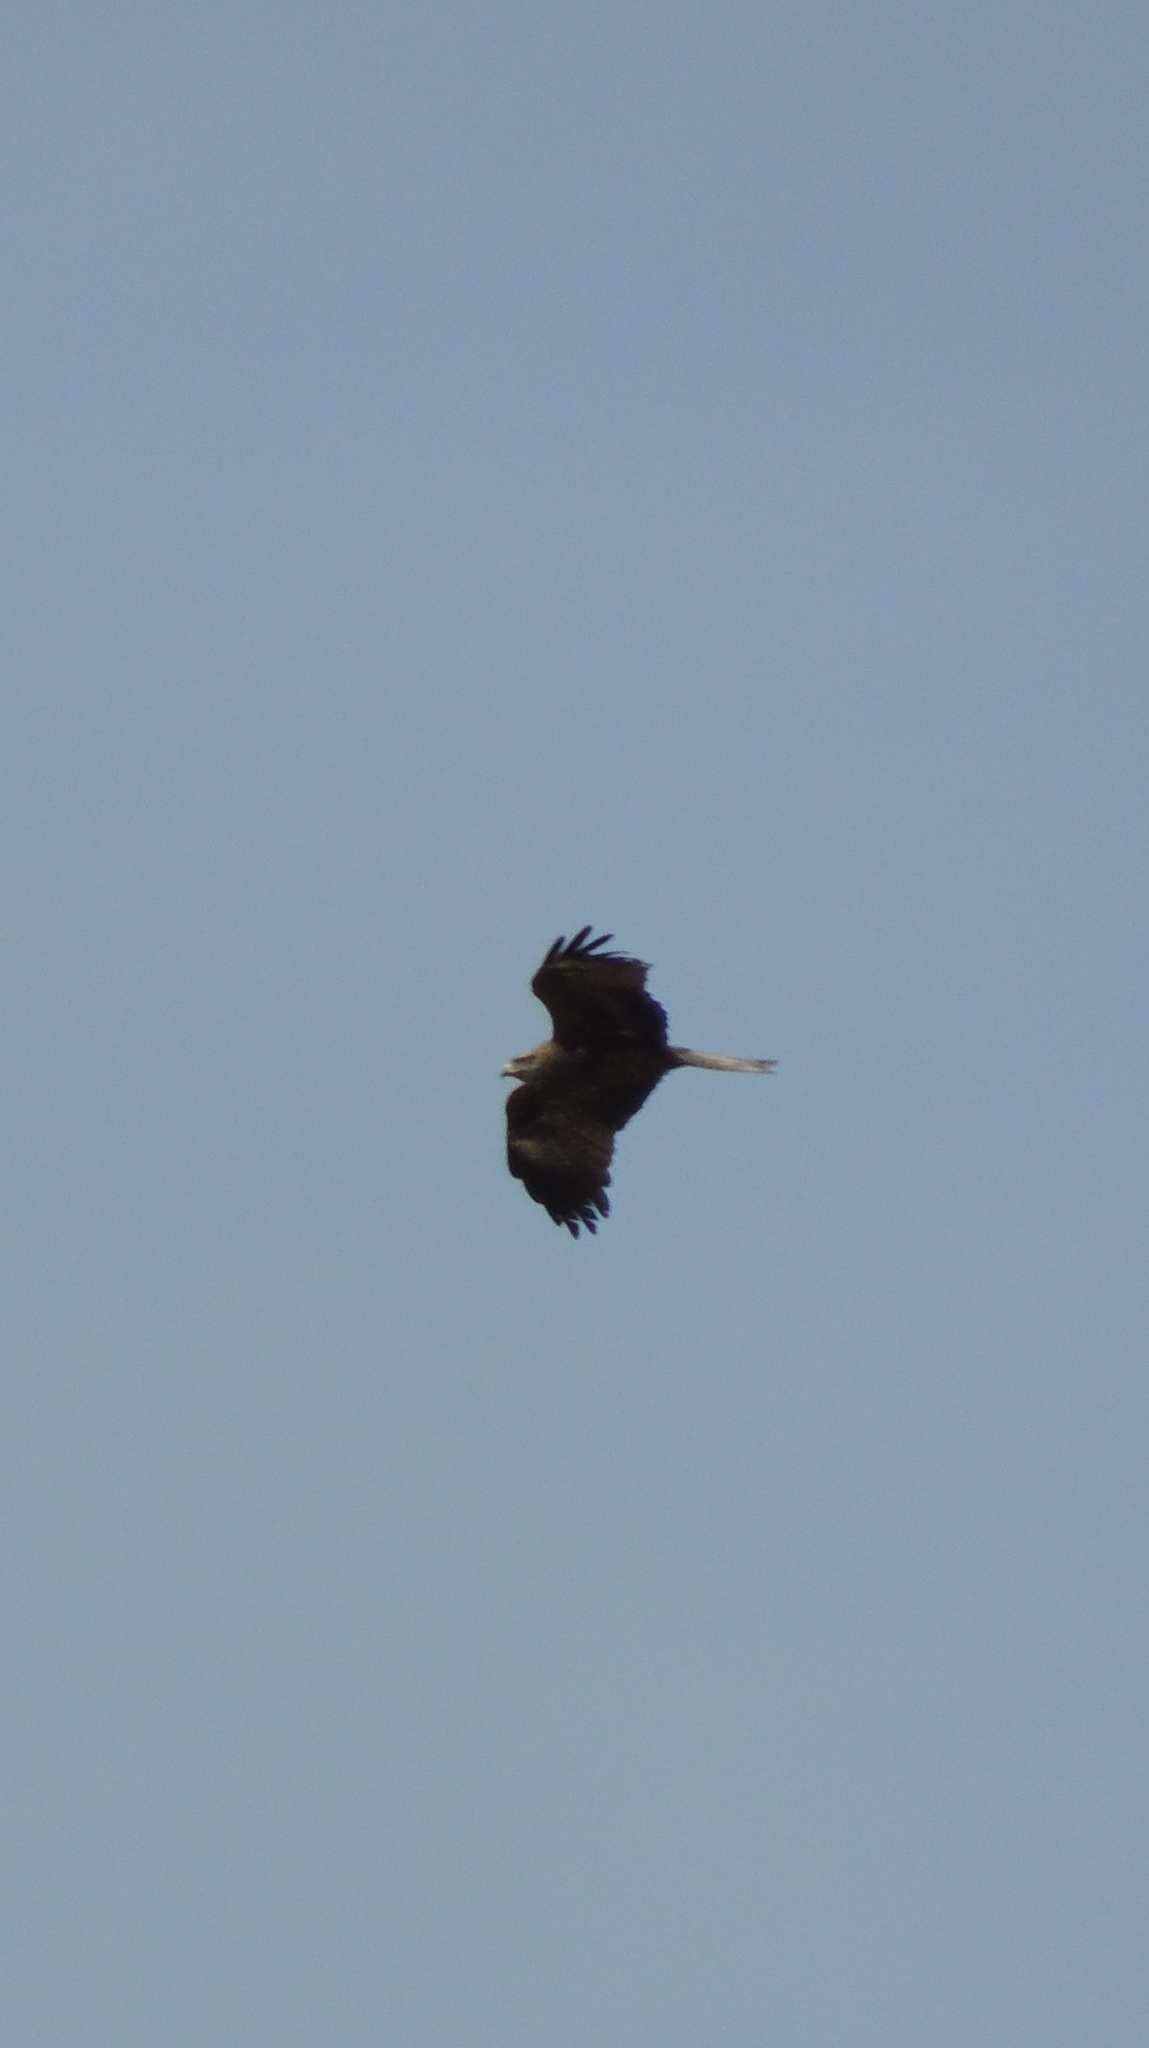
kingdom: Animalia
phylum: Chordata
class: Aves
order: Accipitriformes
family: Accipitridae
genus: Milvus
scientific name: Milvus migrans
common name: Black kite
